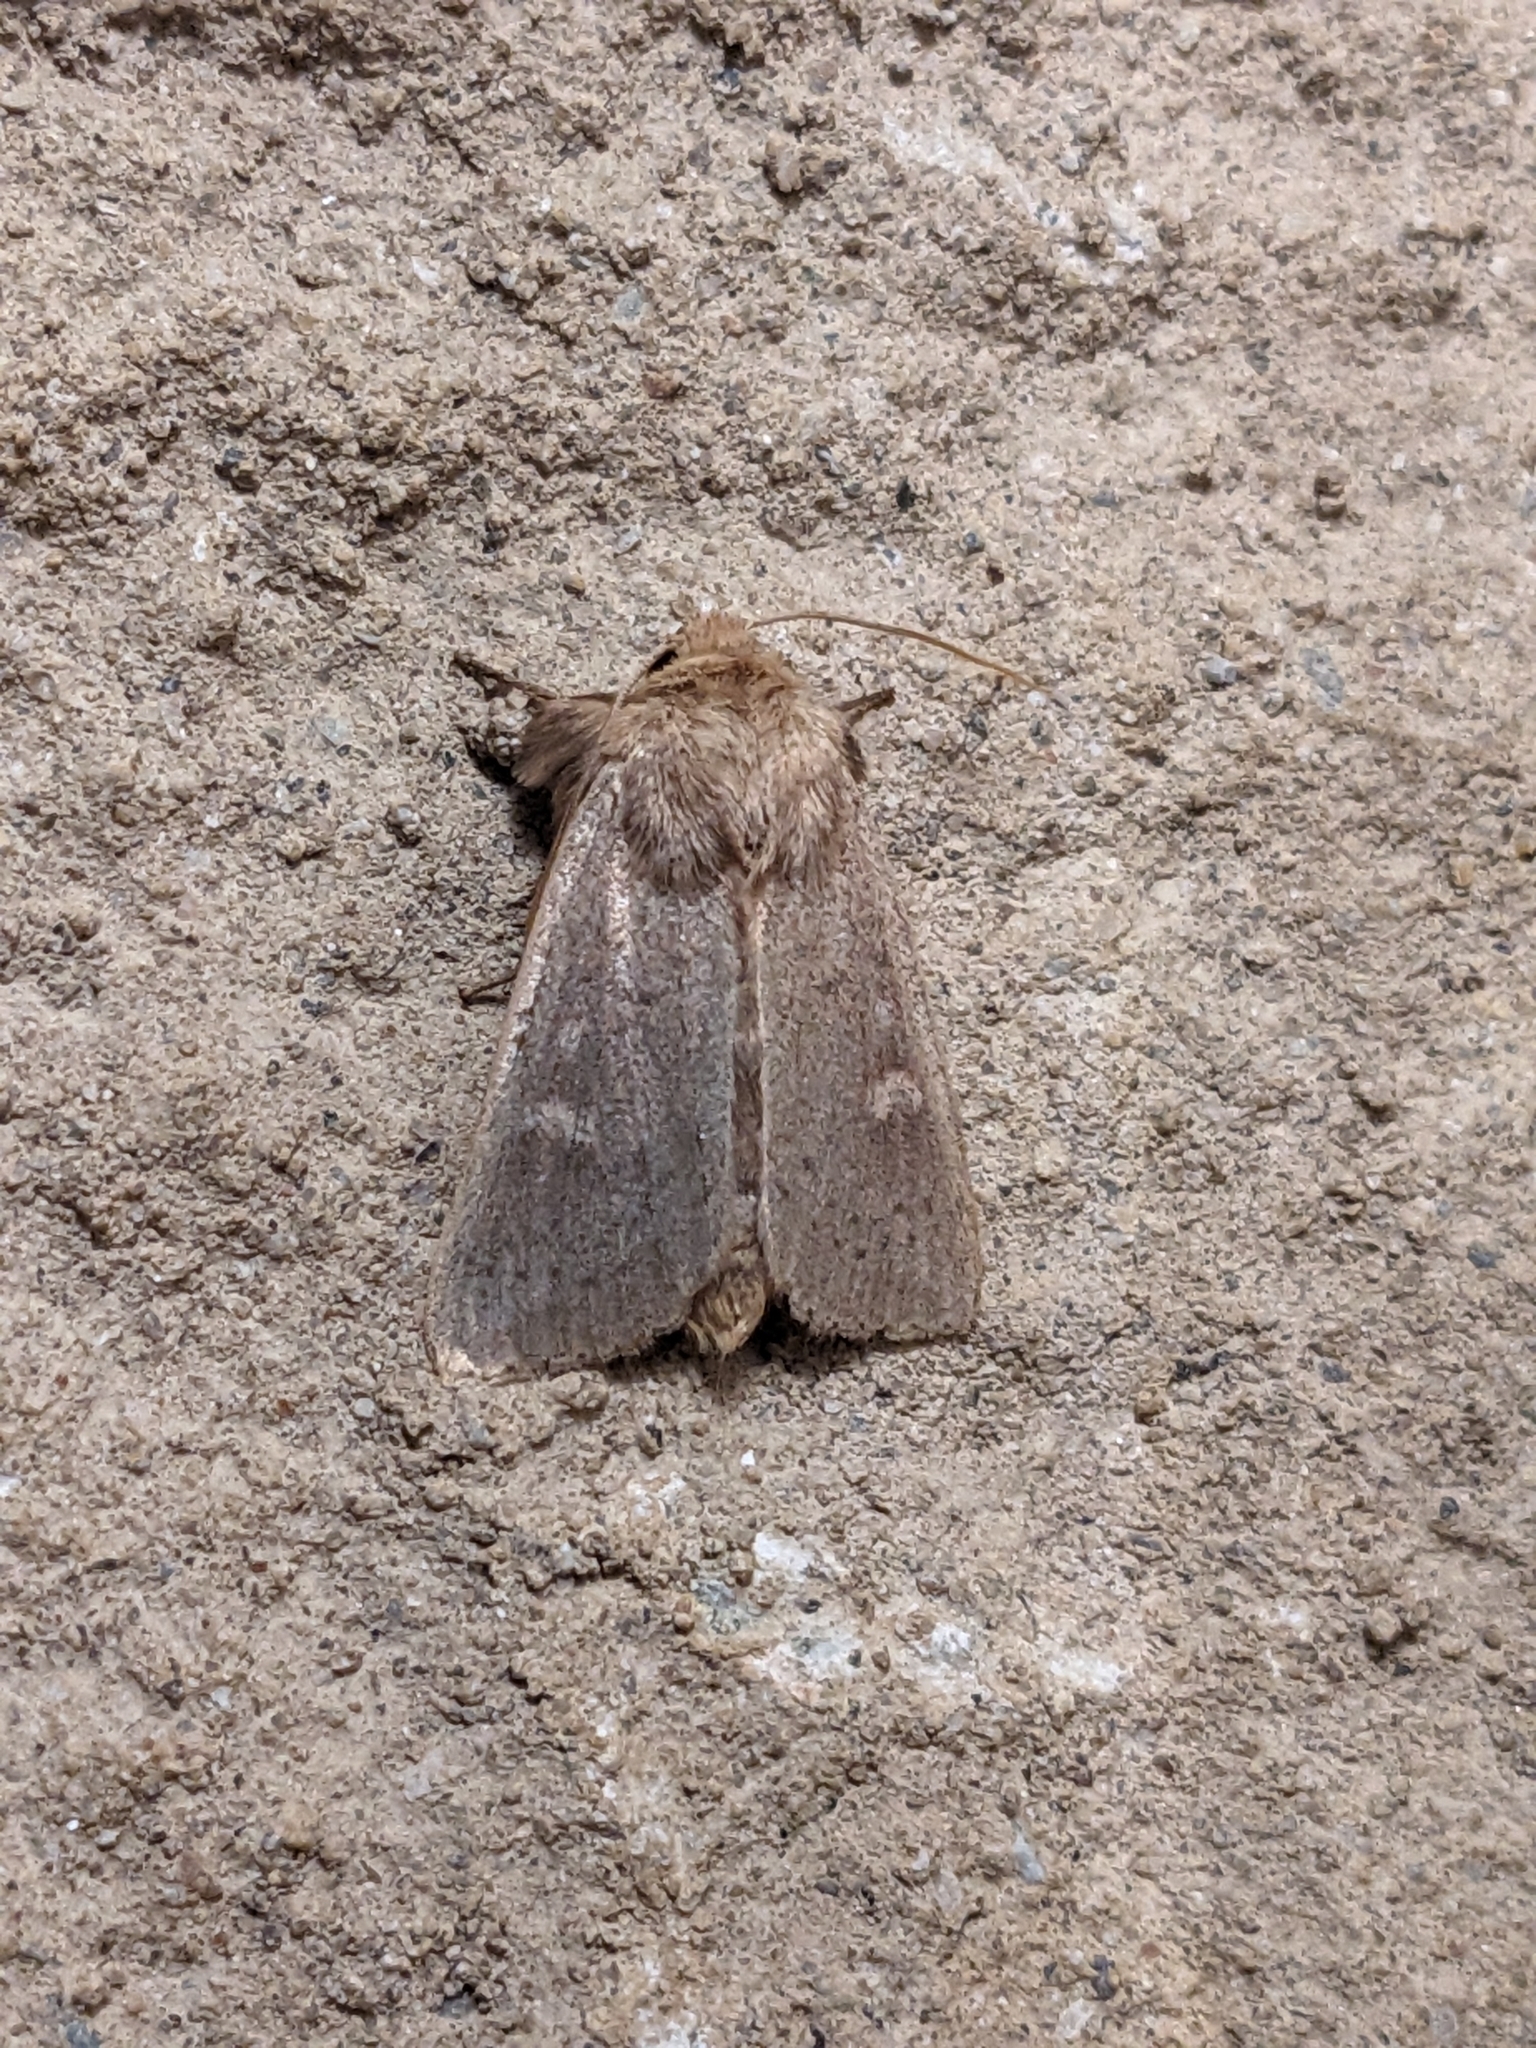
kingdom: Animalia
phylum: Arthropoda
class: Insecta
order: Lepidoptera
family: Noctuidae
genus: Leucania
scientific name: Leucania pseudargyria
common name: False wainscot
